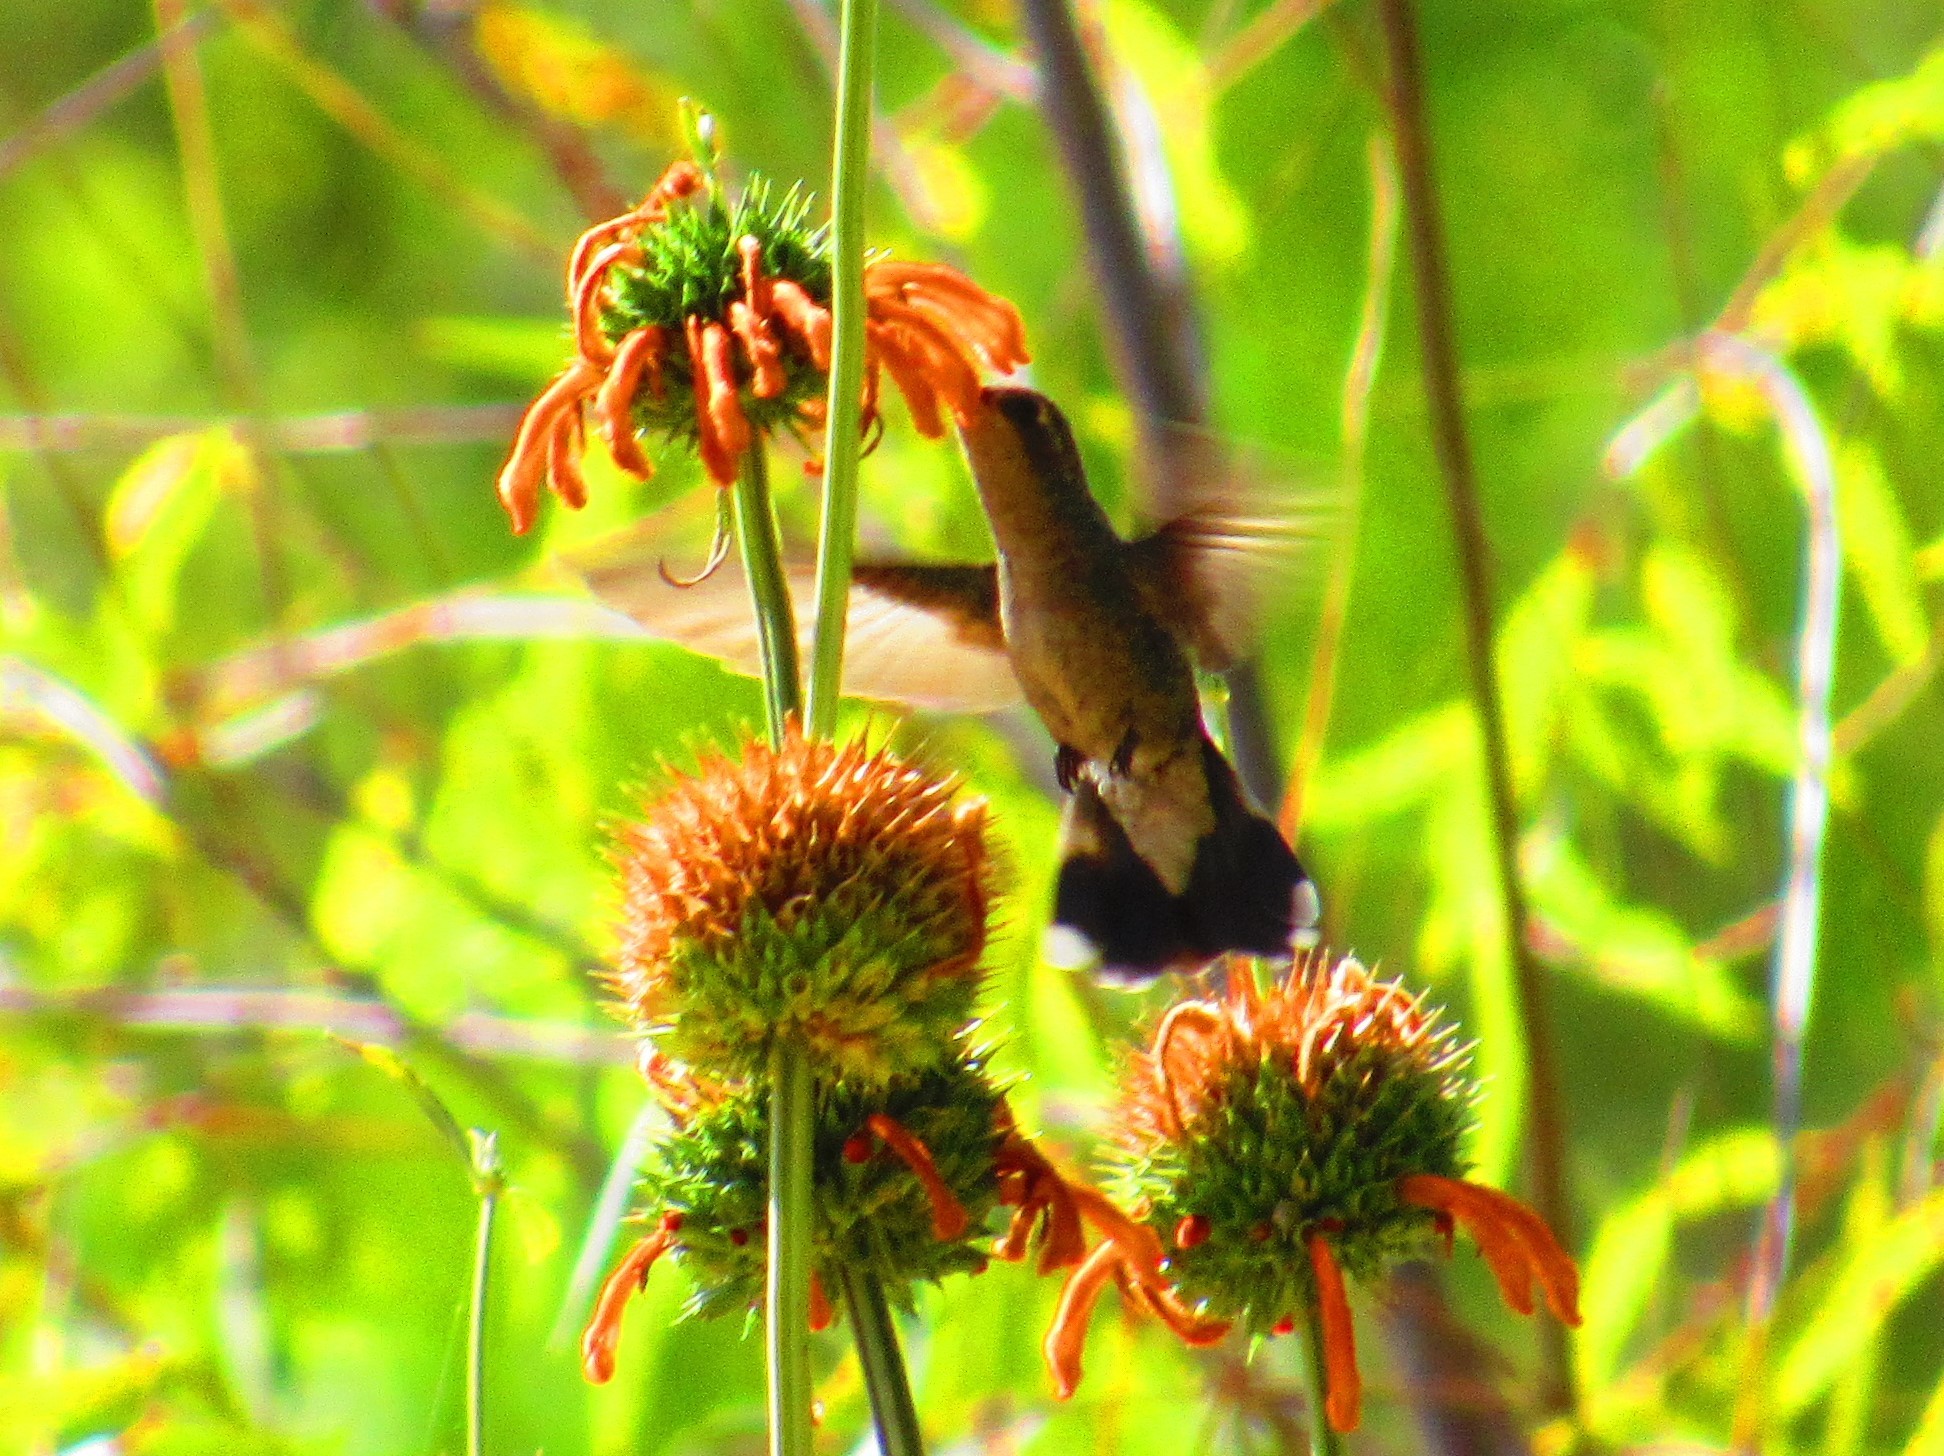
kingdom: Animalia
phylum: Chordata
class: Aves
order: Apodiformes
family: Trochilidae
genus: Cynanthus
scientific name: Cynanthus latirostris
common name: Broad-billed hummingbird
